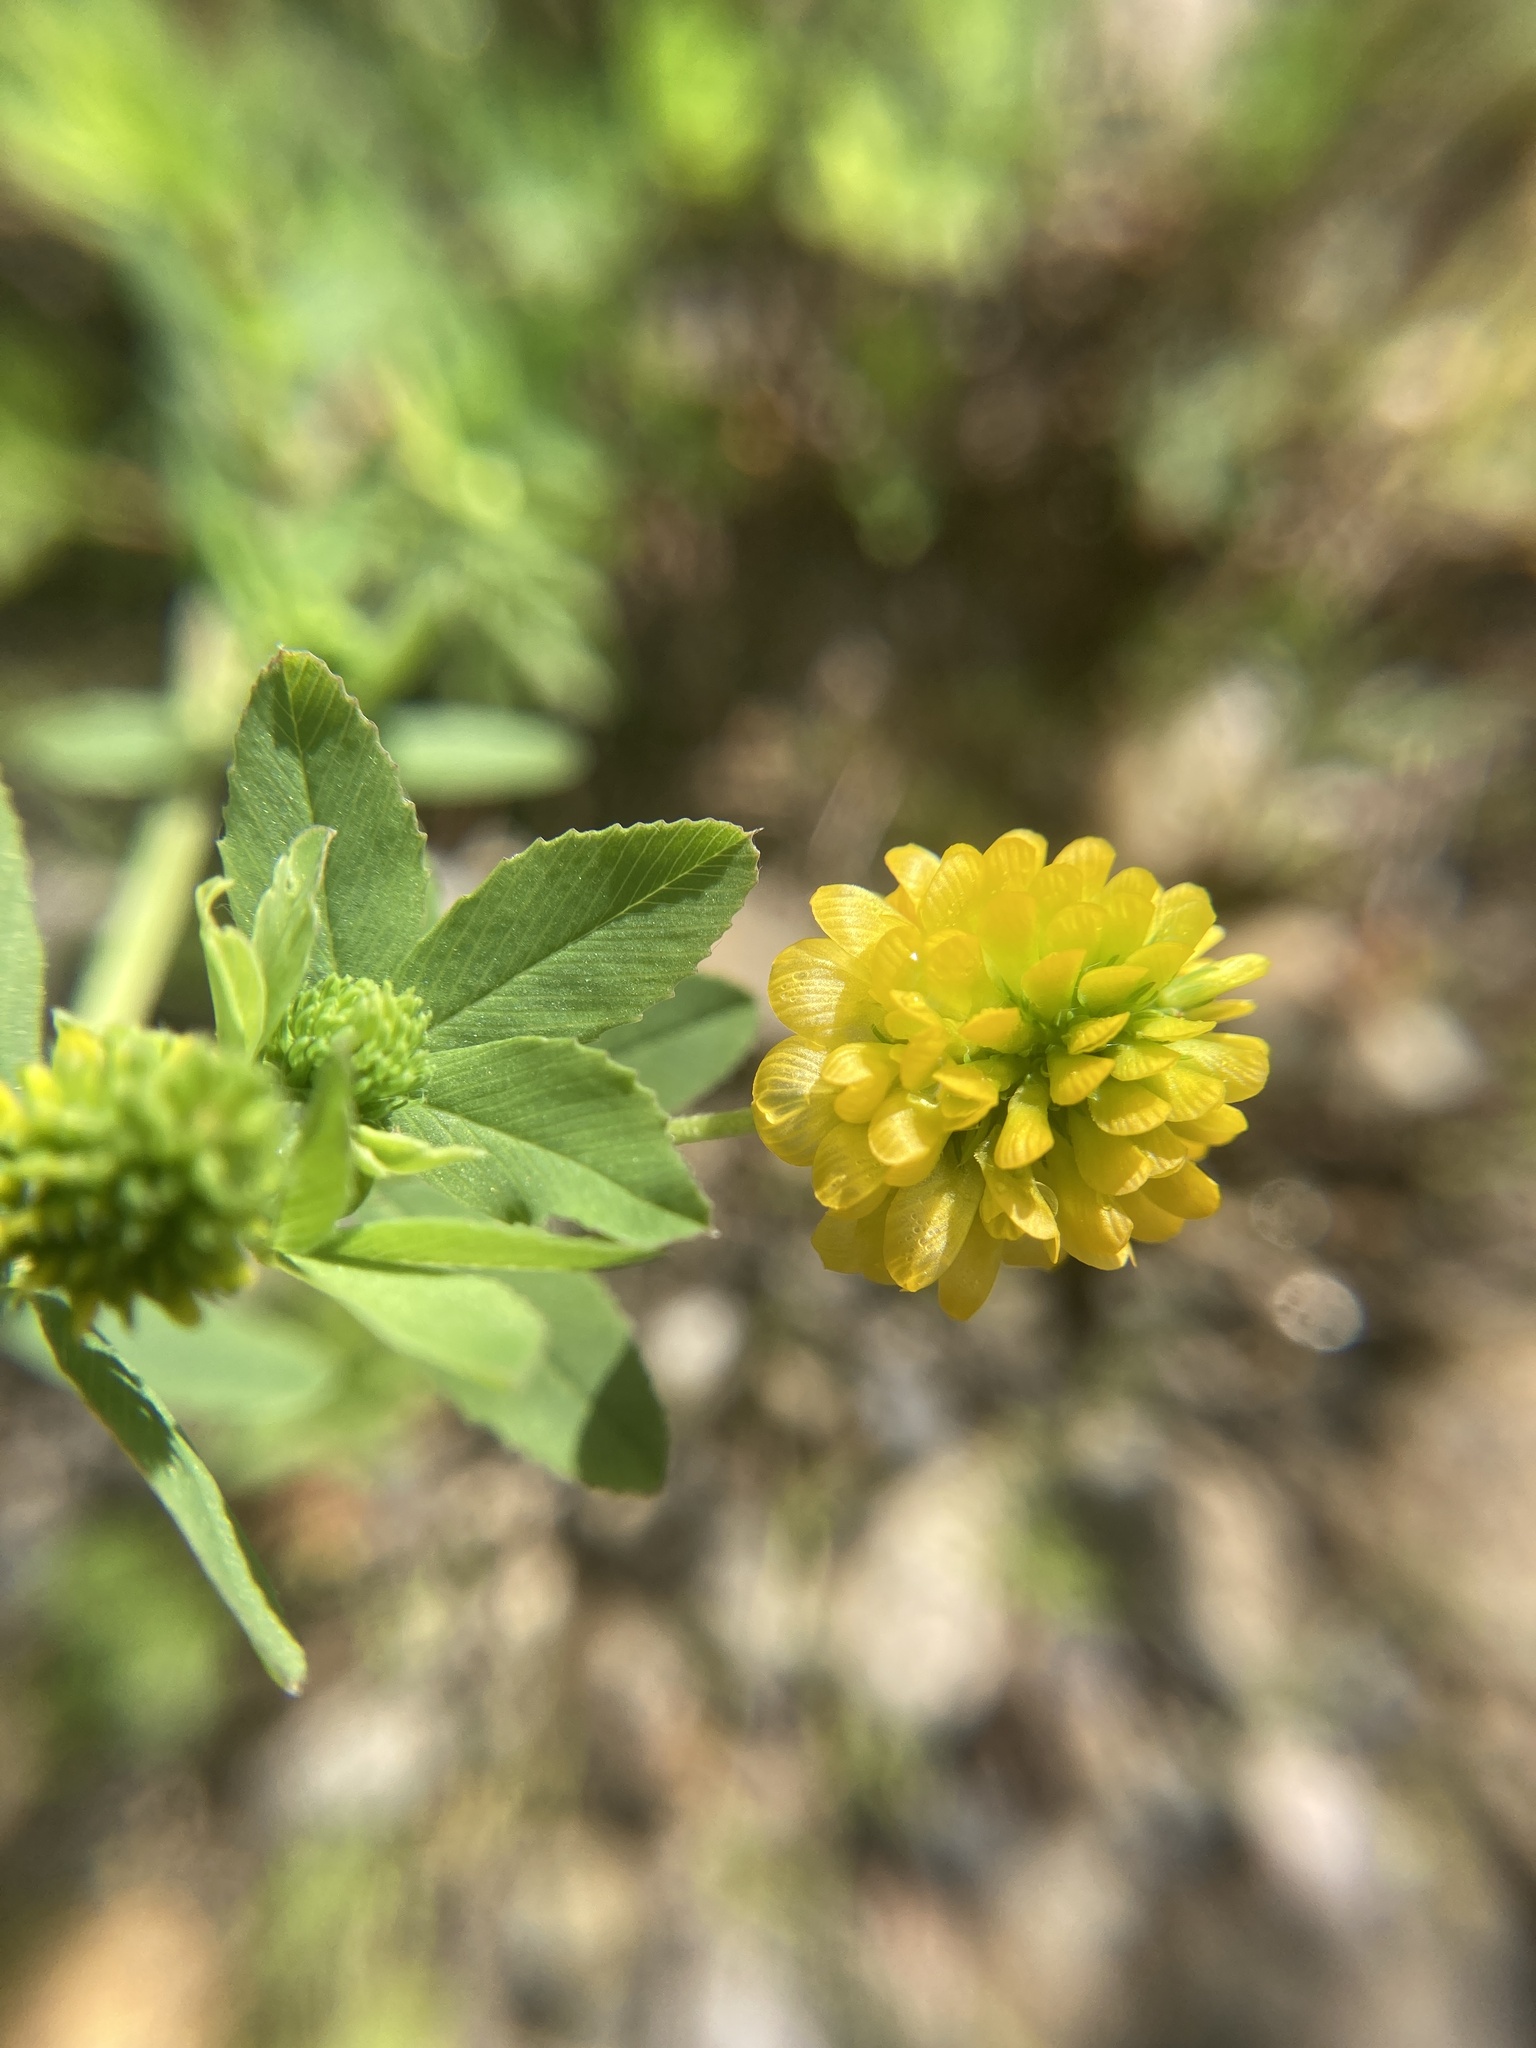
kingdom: Plantae
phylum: Tracheophyta
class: Magnoliopsida
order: Fabales
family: Fabaceae
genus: Trifolium
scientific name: Trifolium aureum
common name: Golden clover
